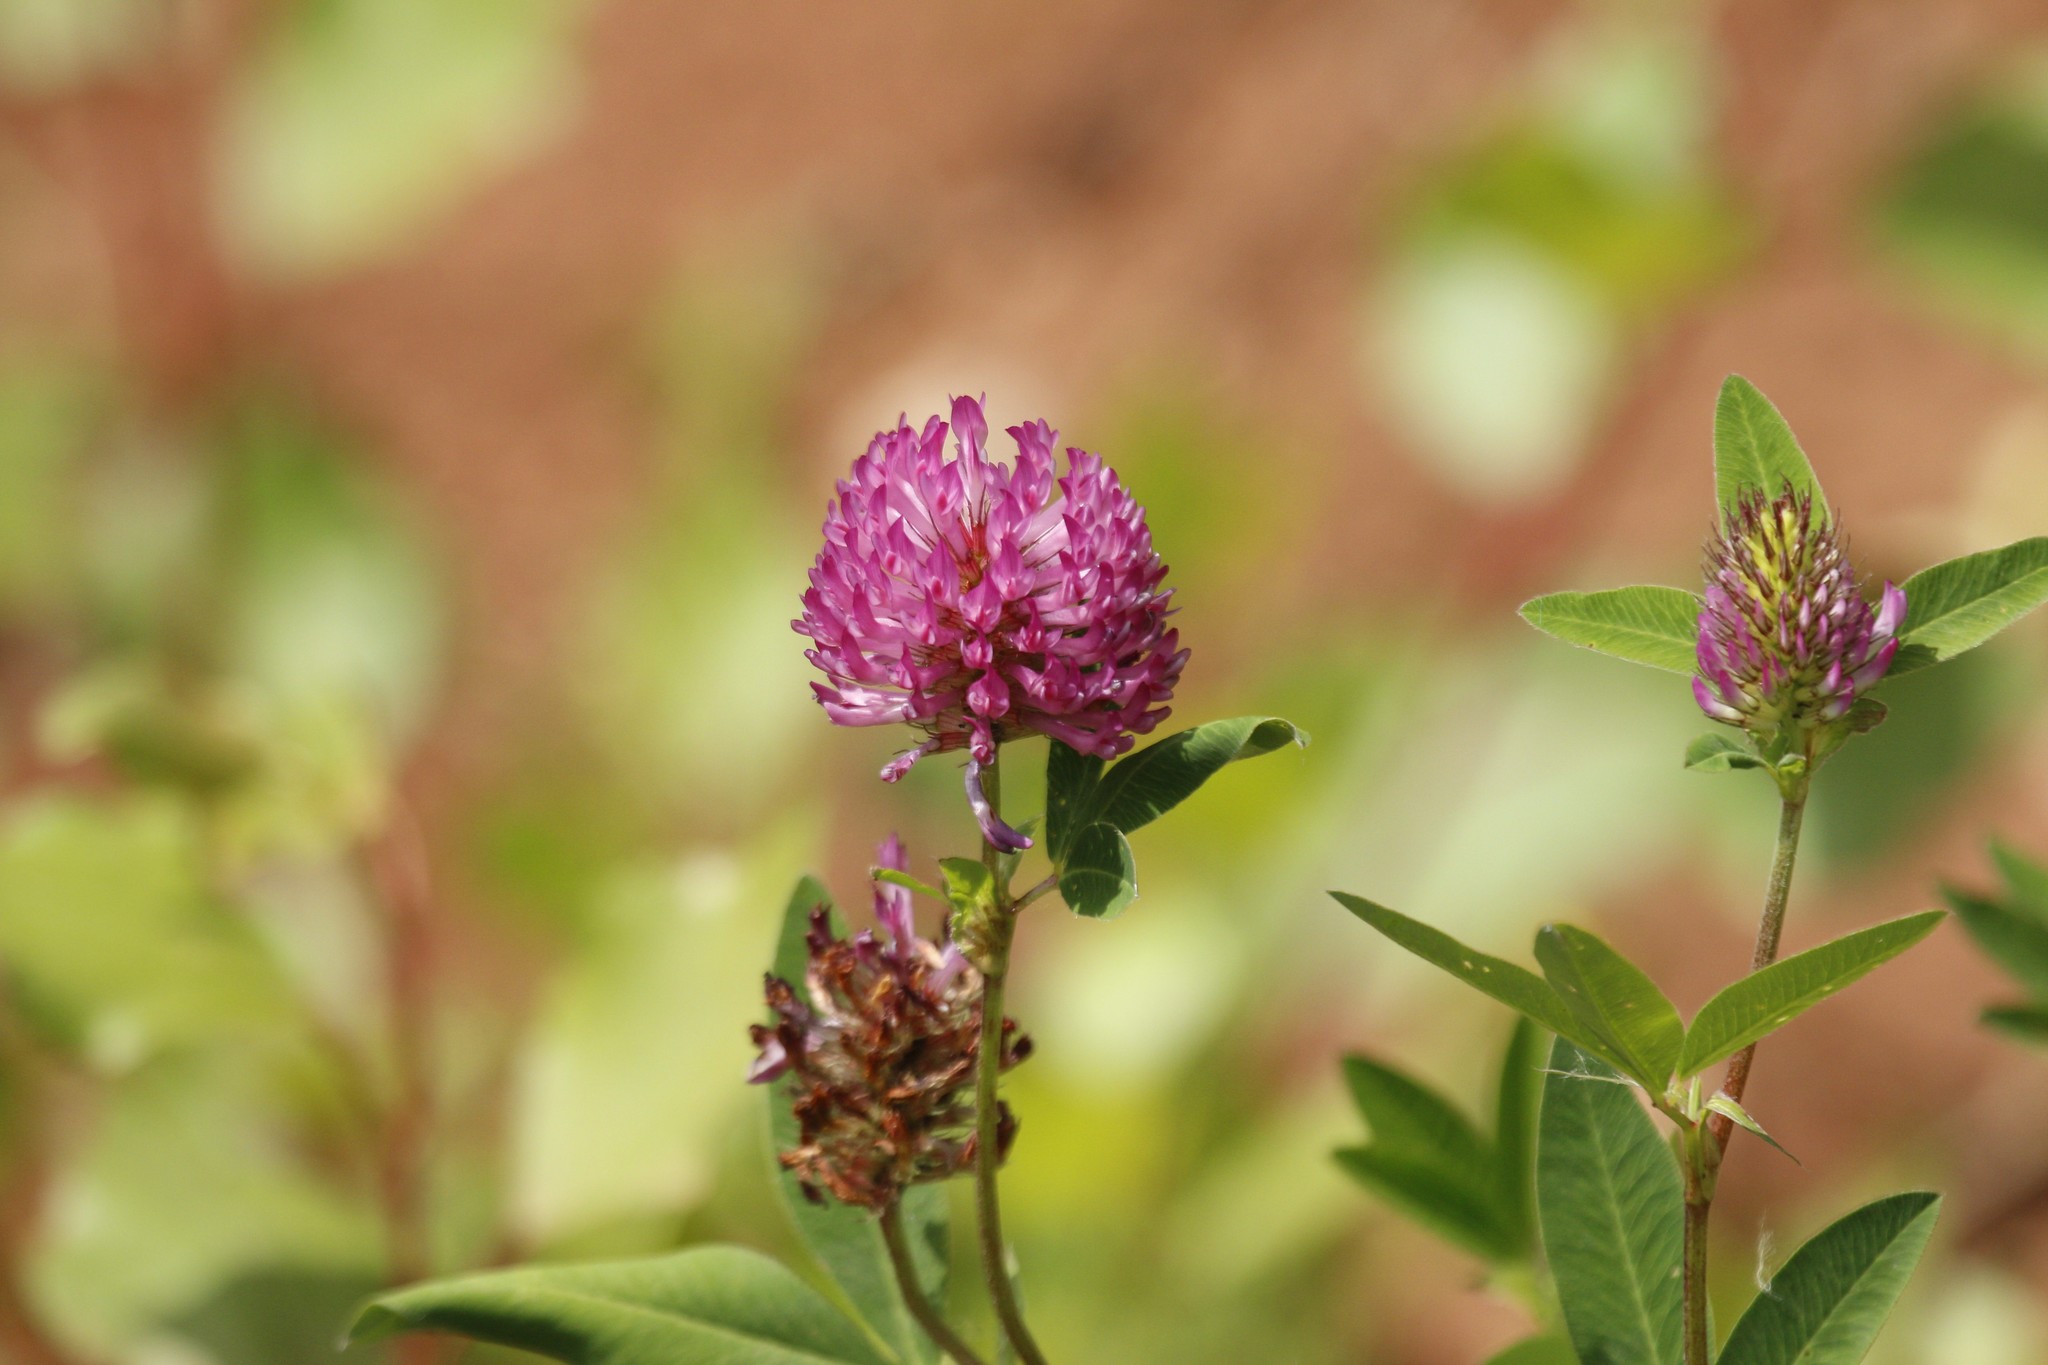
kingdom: Plantae
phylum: Tracheophyta
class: Magnoliopsida
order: Fabales
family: Fabaceae
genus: Trifolium
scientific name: Trifolium medium
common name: Zigzag clover
